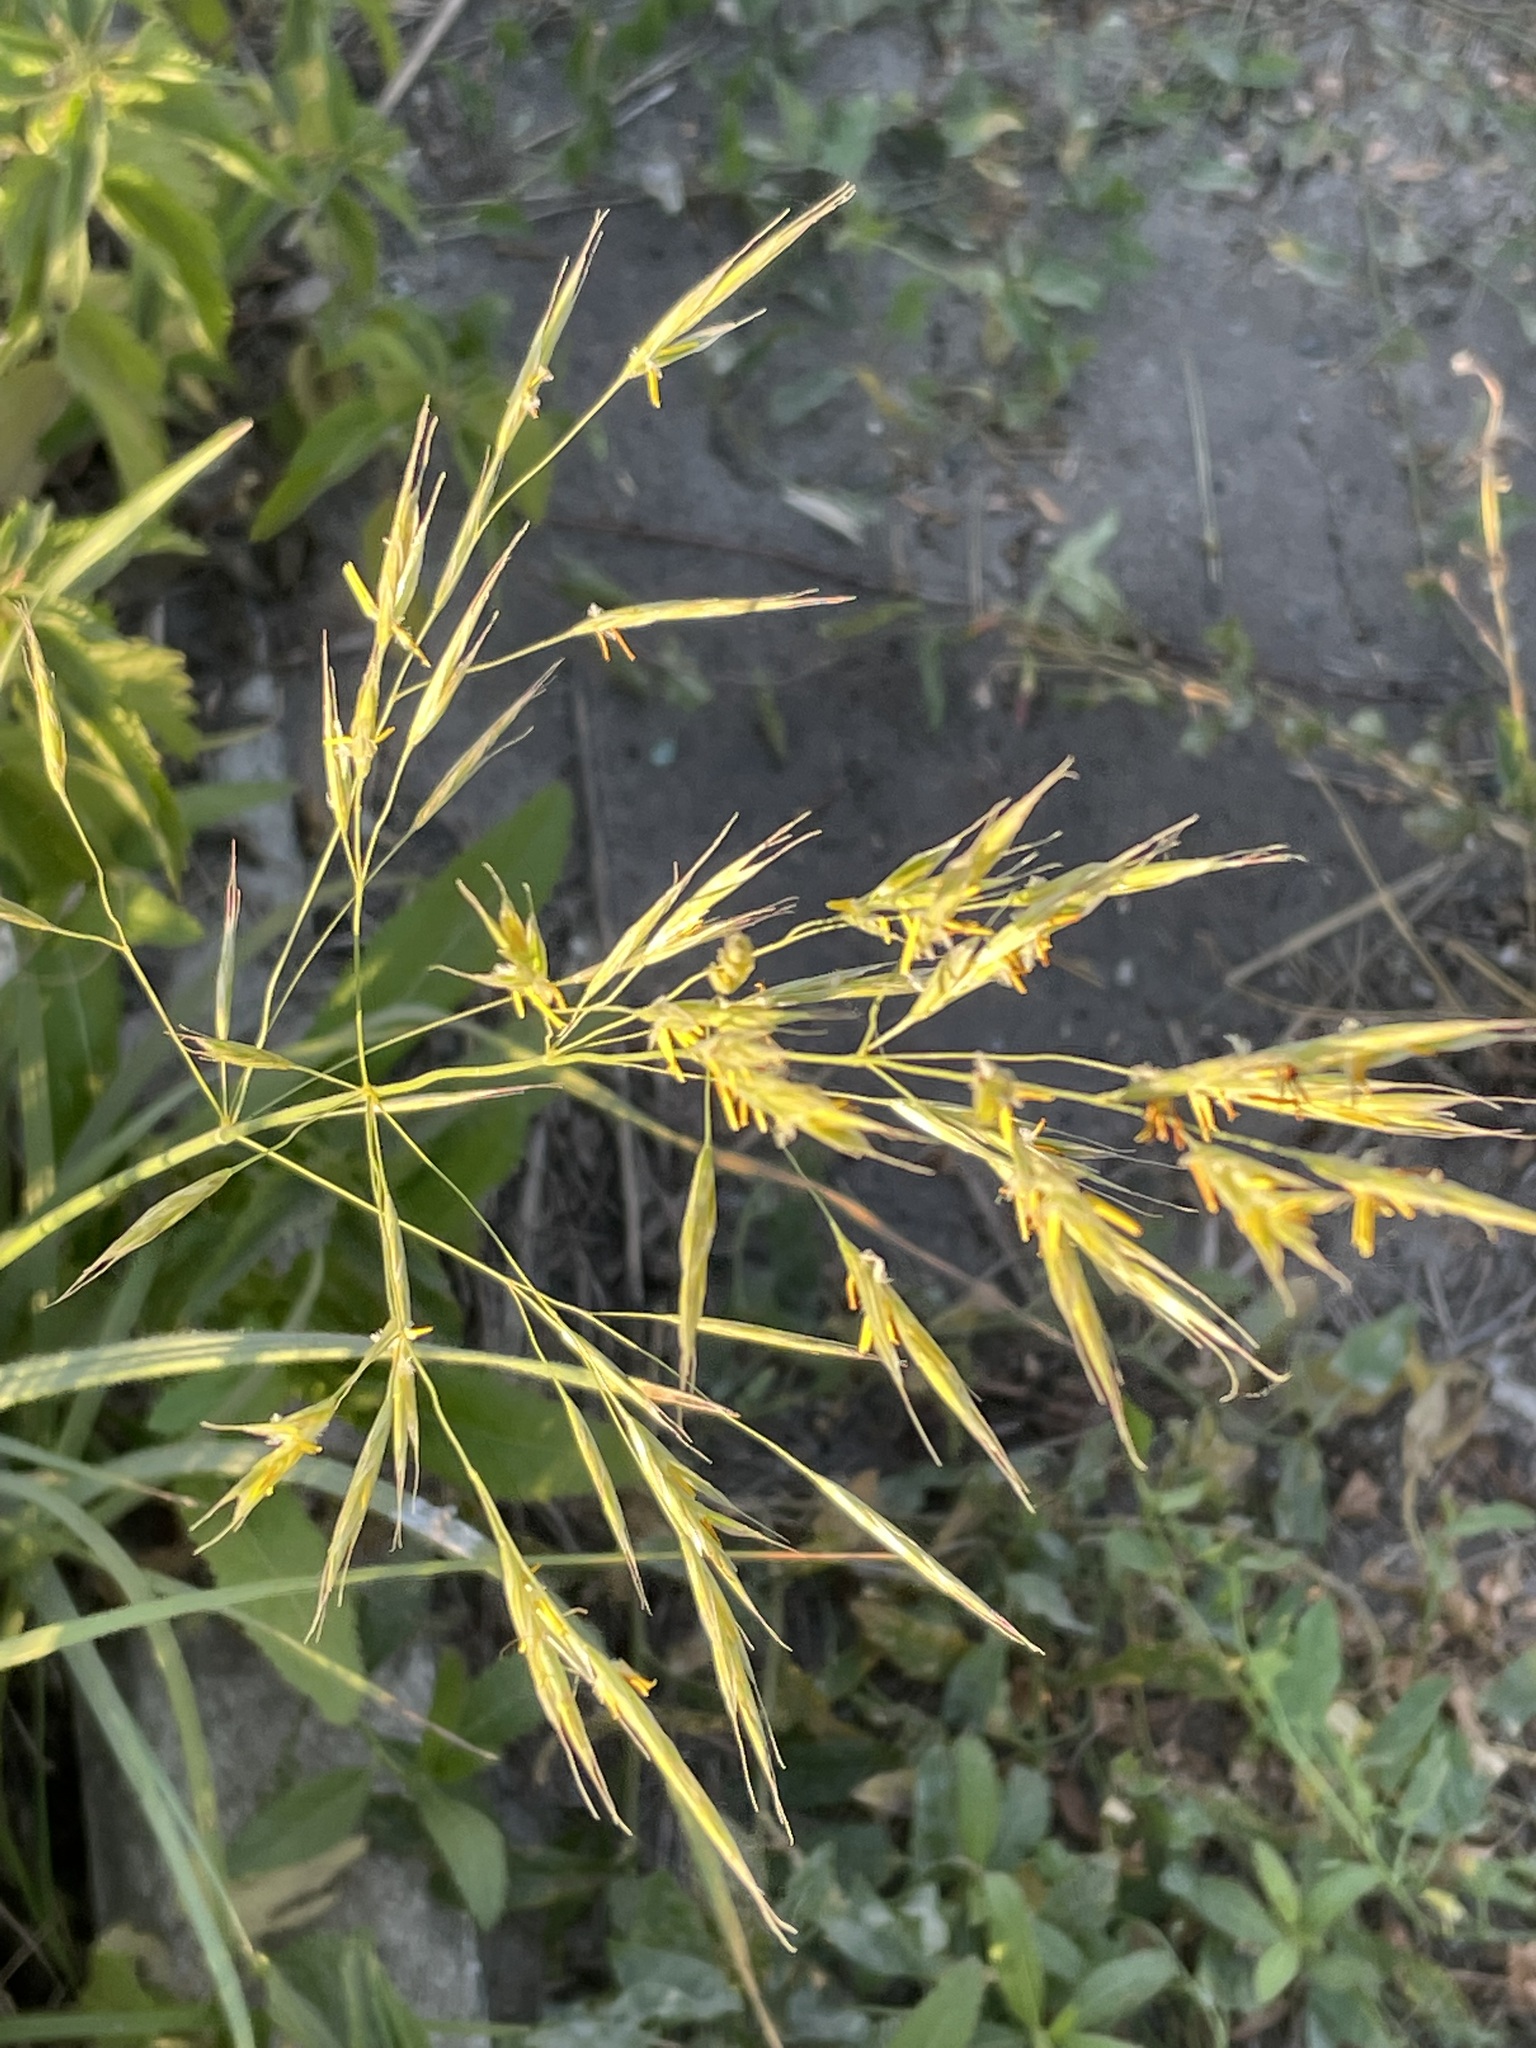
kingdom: Plantae
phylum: Tracheophyta
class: Liliopsida
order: Poales
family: Poaceae
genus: Bromus
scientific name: Bromus inermis
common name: Smooth brome
